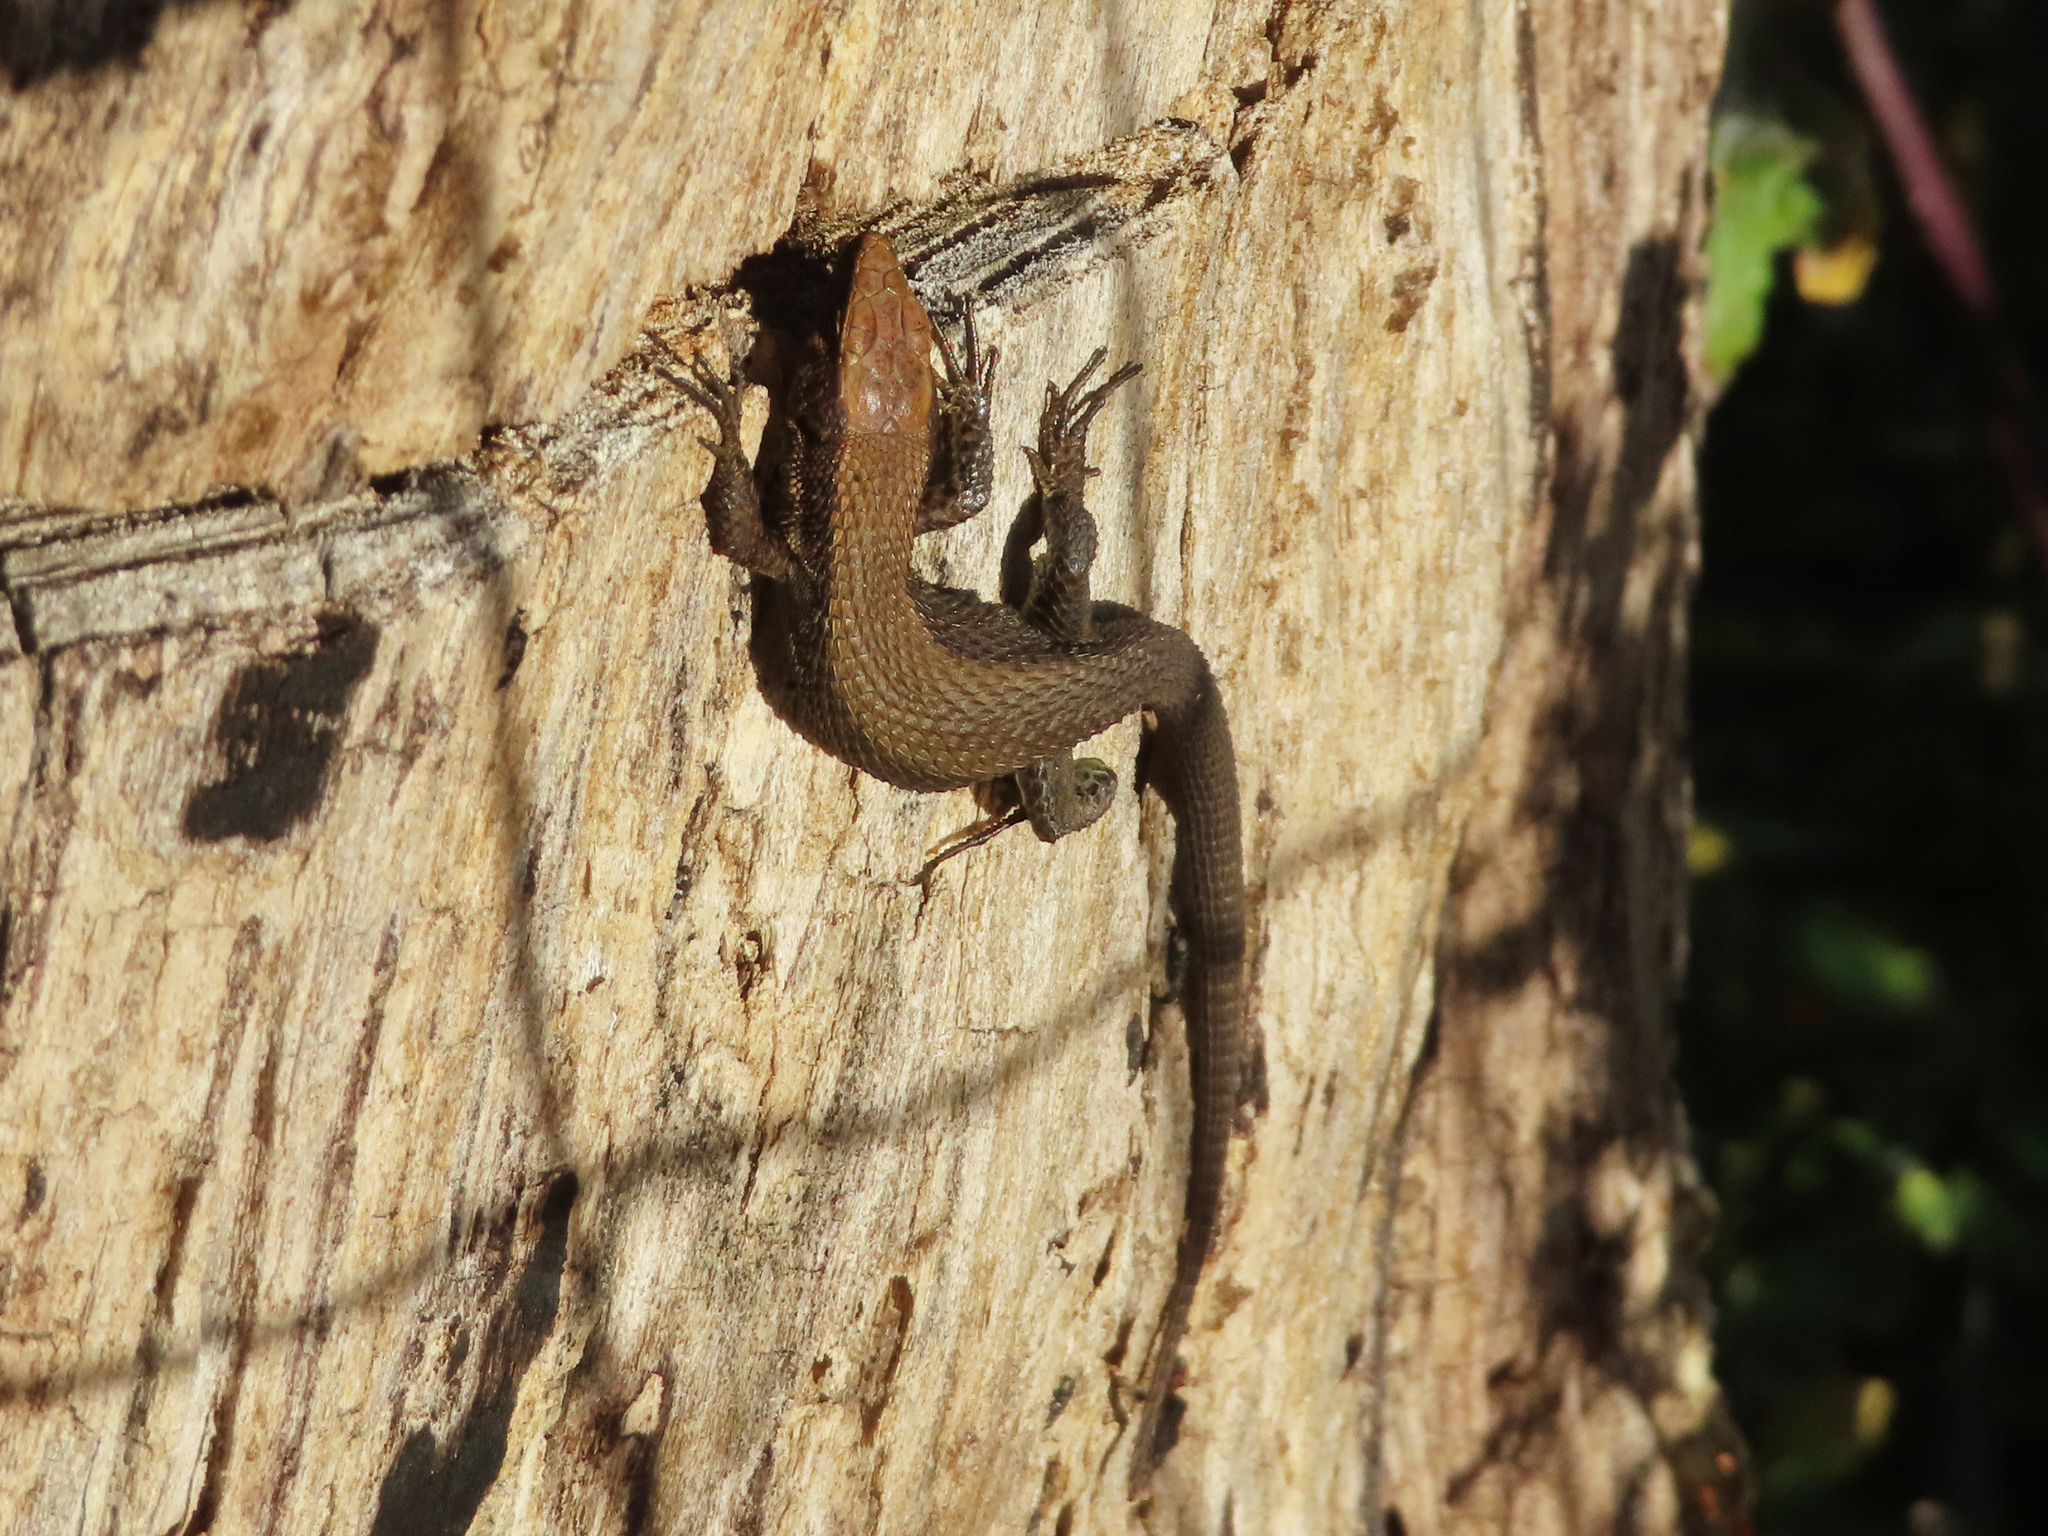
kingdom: Animalia
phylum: Chordata
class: Squamata
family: Lacertidae
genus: Algyroides
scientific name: Algyroides moreoticus
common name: Greek algyroides
